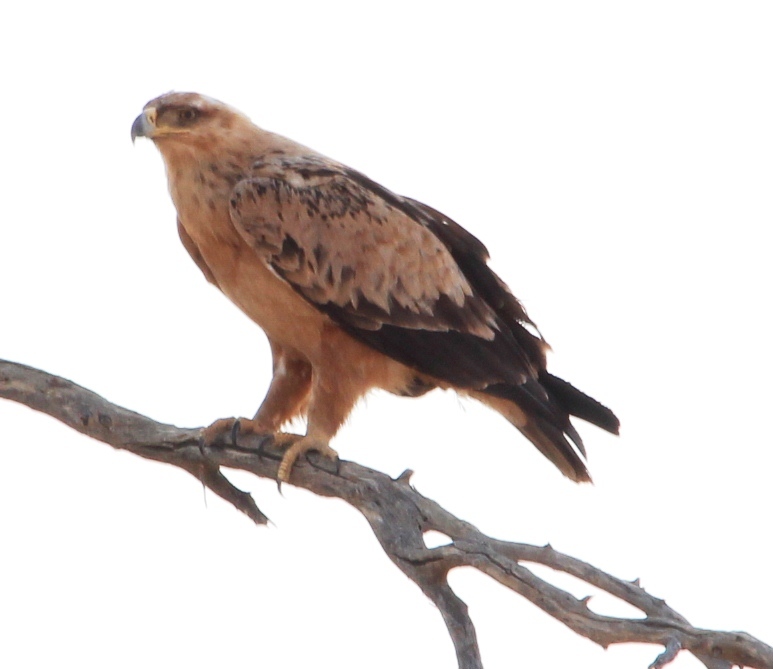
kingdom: Animalia
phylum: Chordata
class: Aves
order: Accipitriformes
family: Accipitridae
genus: Aquila
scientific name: Aquila rapax
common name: Tawny eagle
